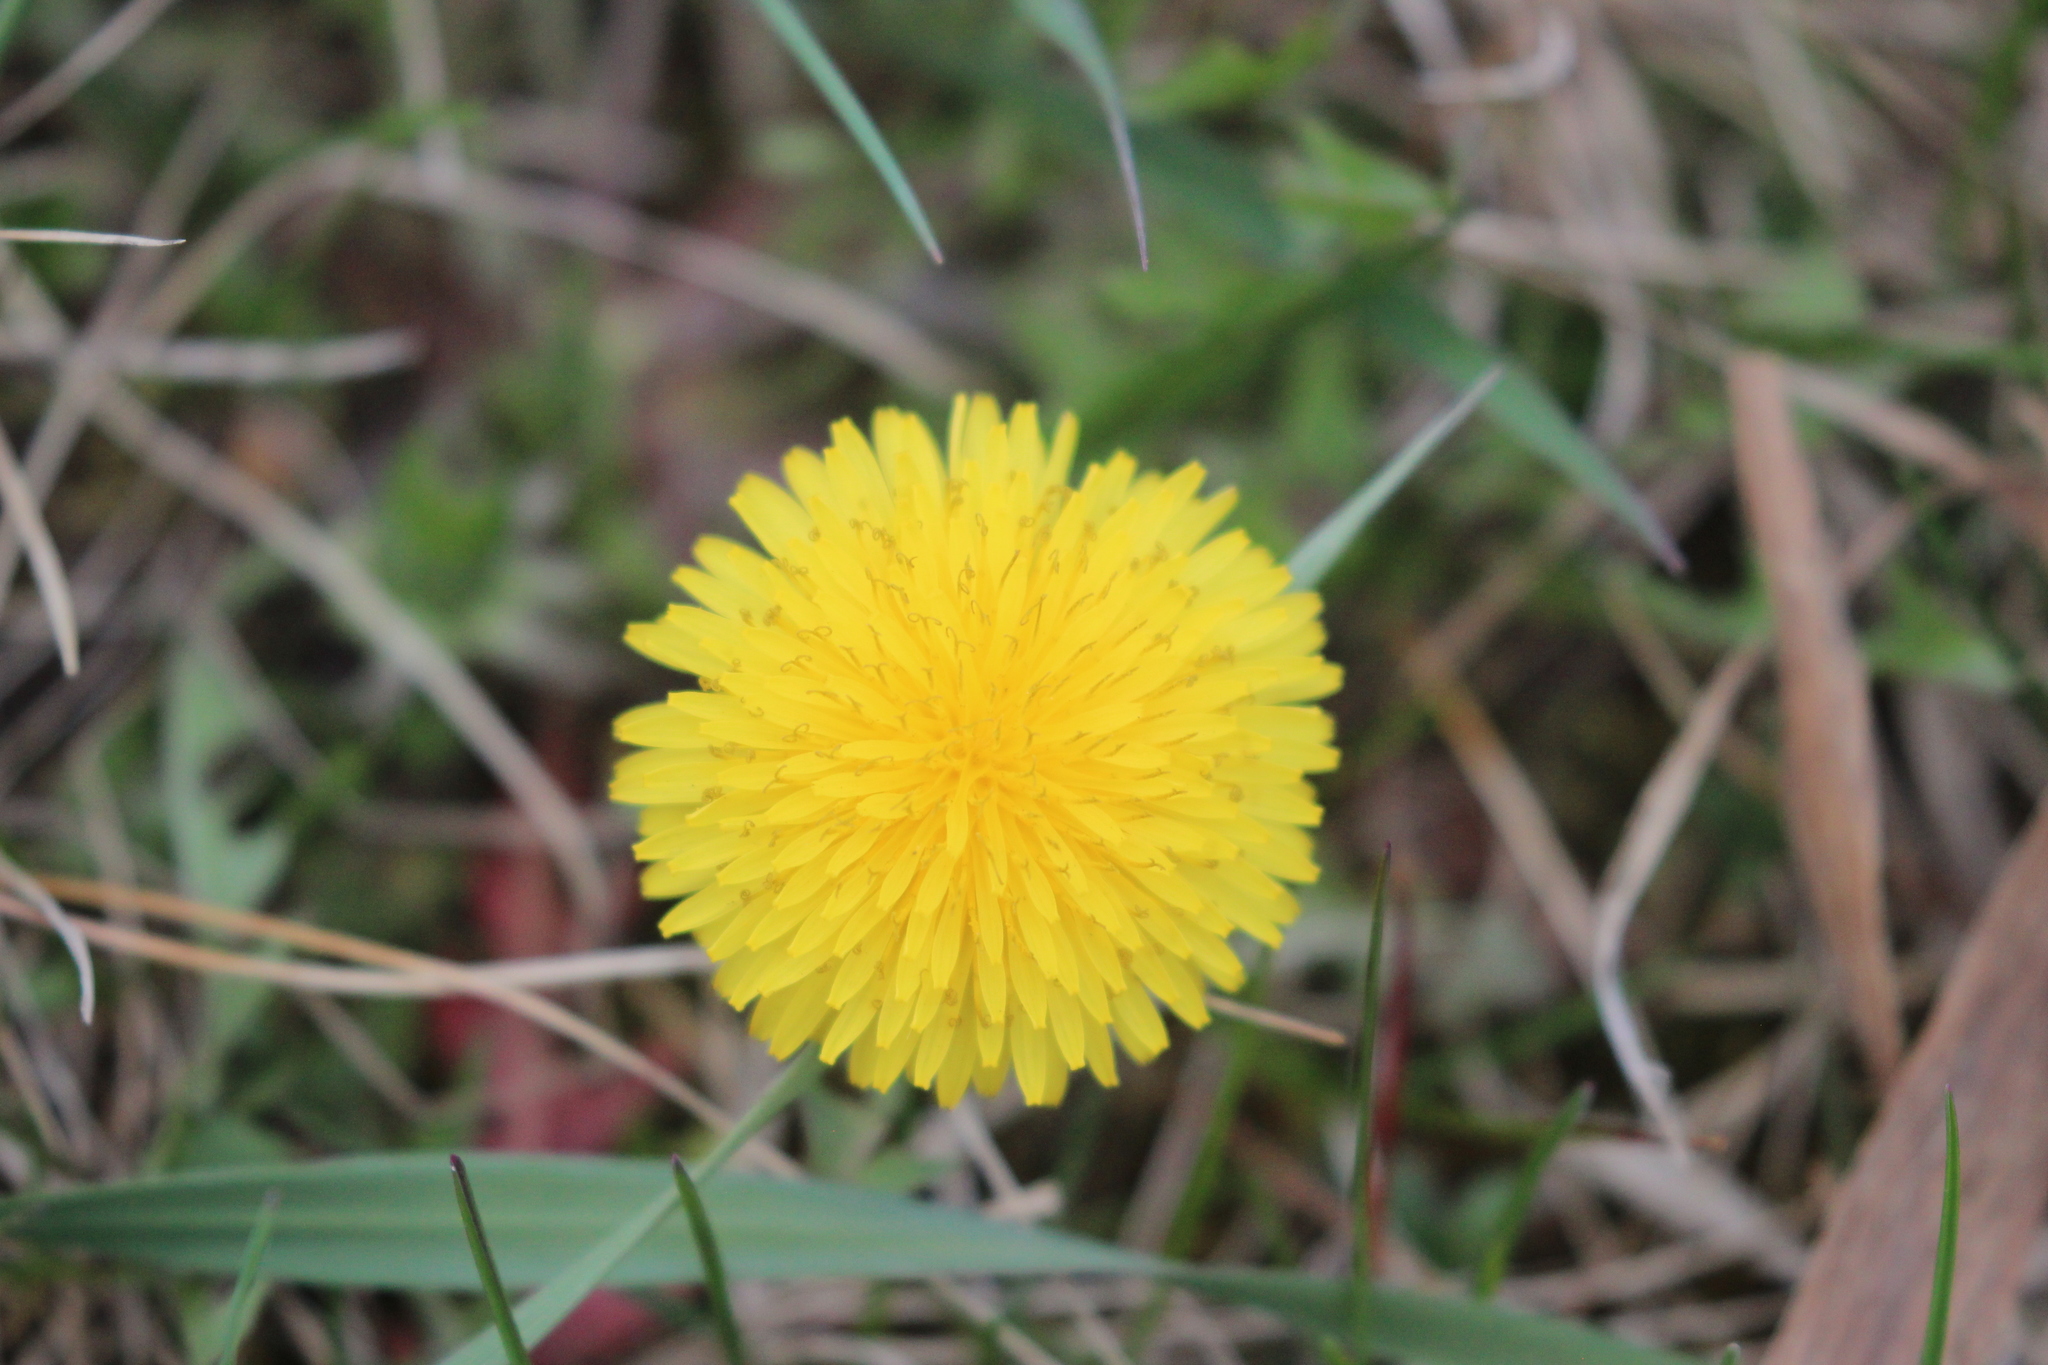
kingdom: Plantae
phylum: Tracheophyta
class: Magnoliopsida
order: Asterales
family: Asteraceae
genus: Taraxacum
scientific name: Taraxacum officinale
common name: Common dandelion
